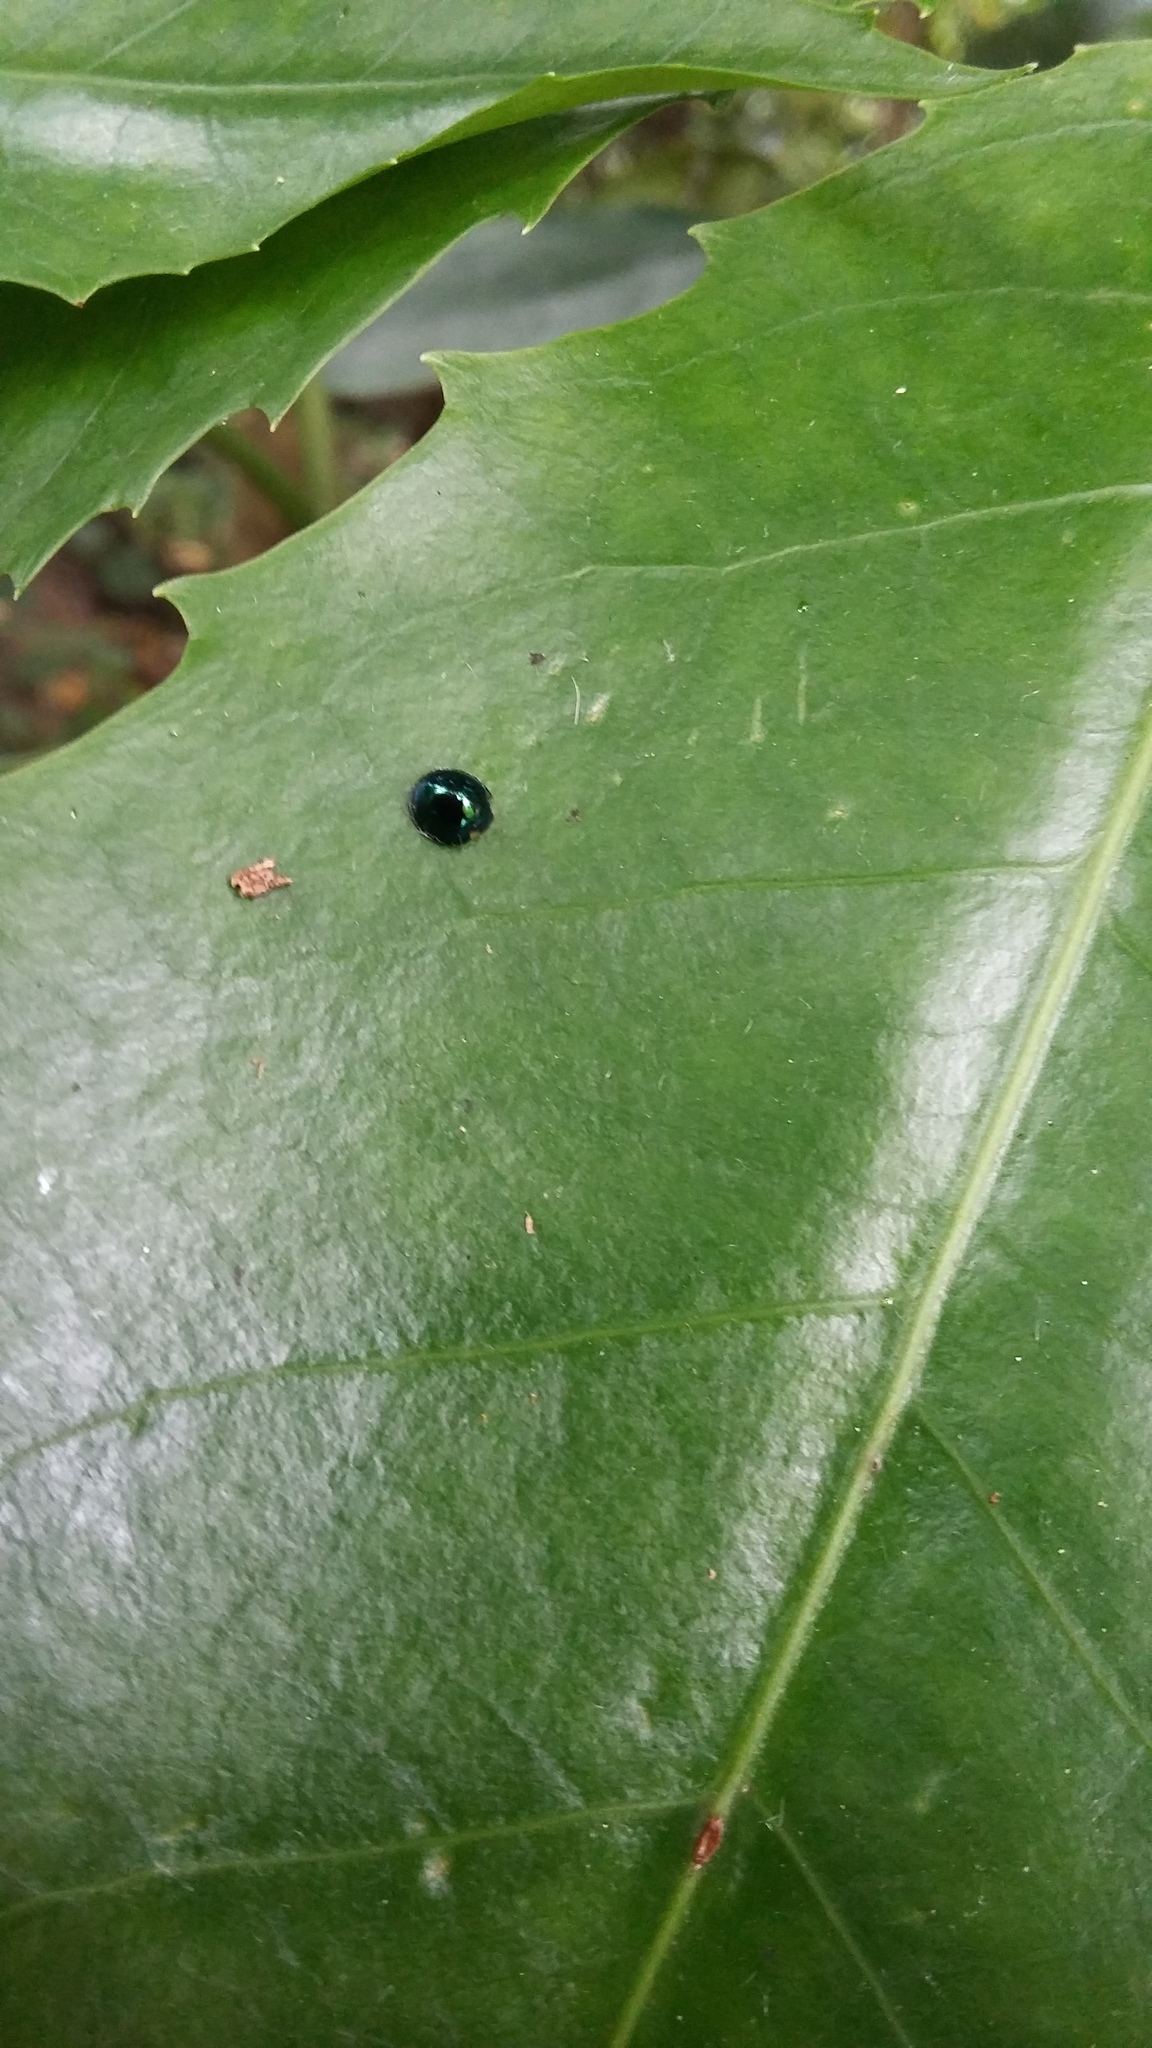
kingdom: Animalia
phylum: Arthropoda
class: Insecta
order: Coleoptera
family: Coccinellidae
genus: Halmus
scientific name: Halmus chalybeus
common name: Steel blue ladybird beetle
